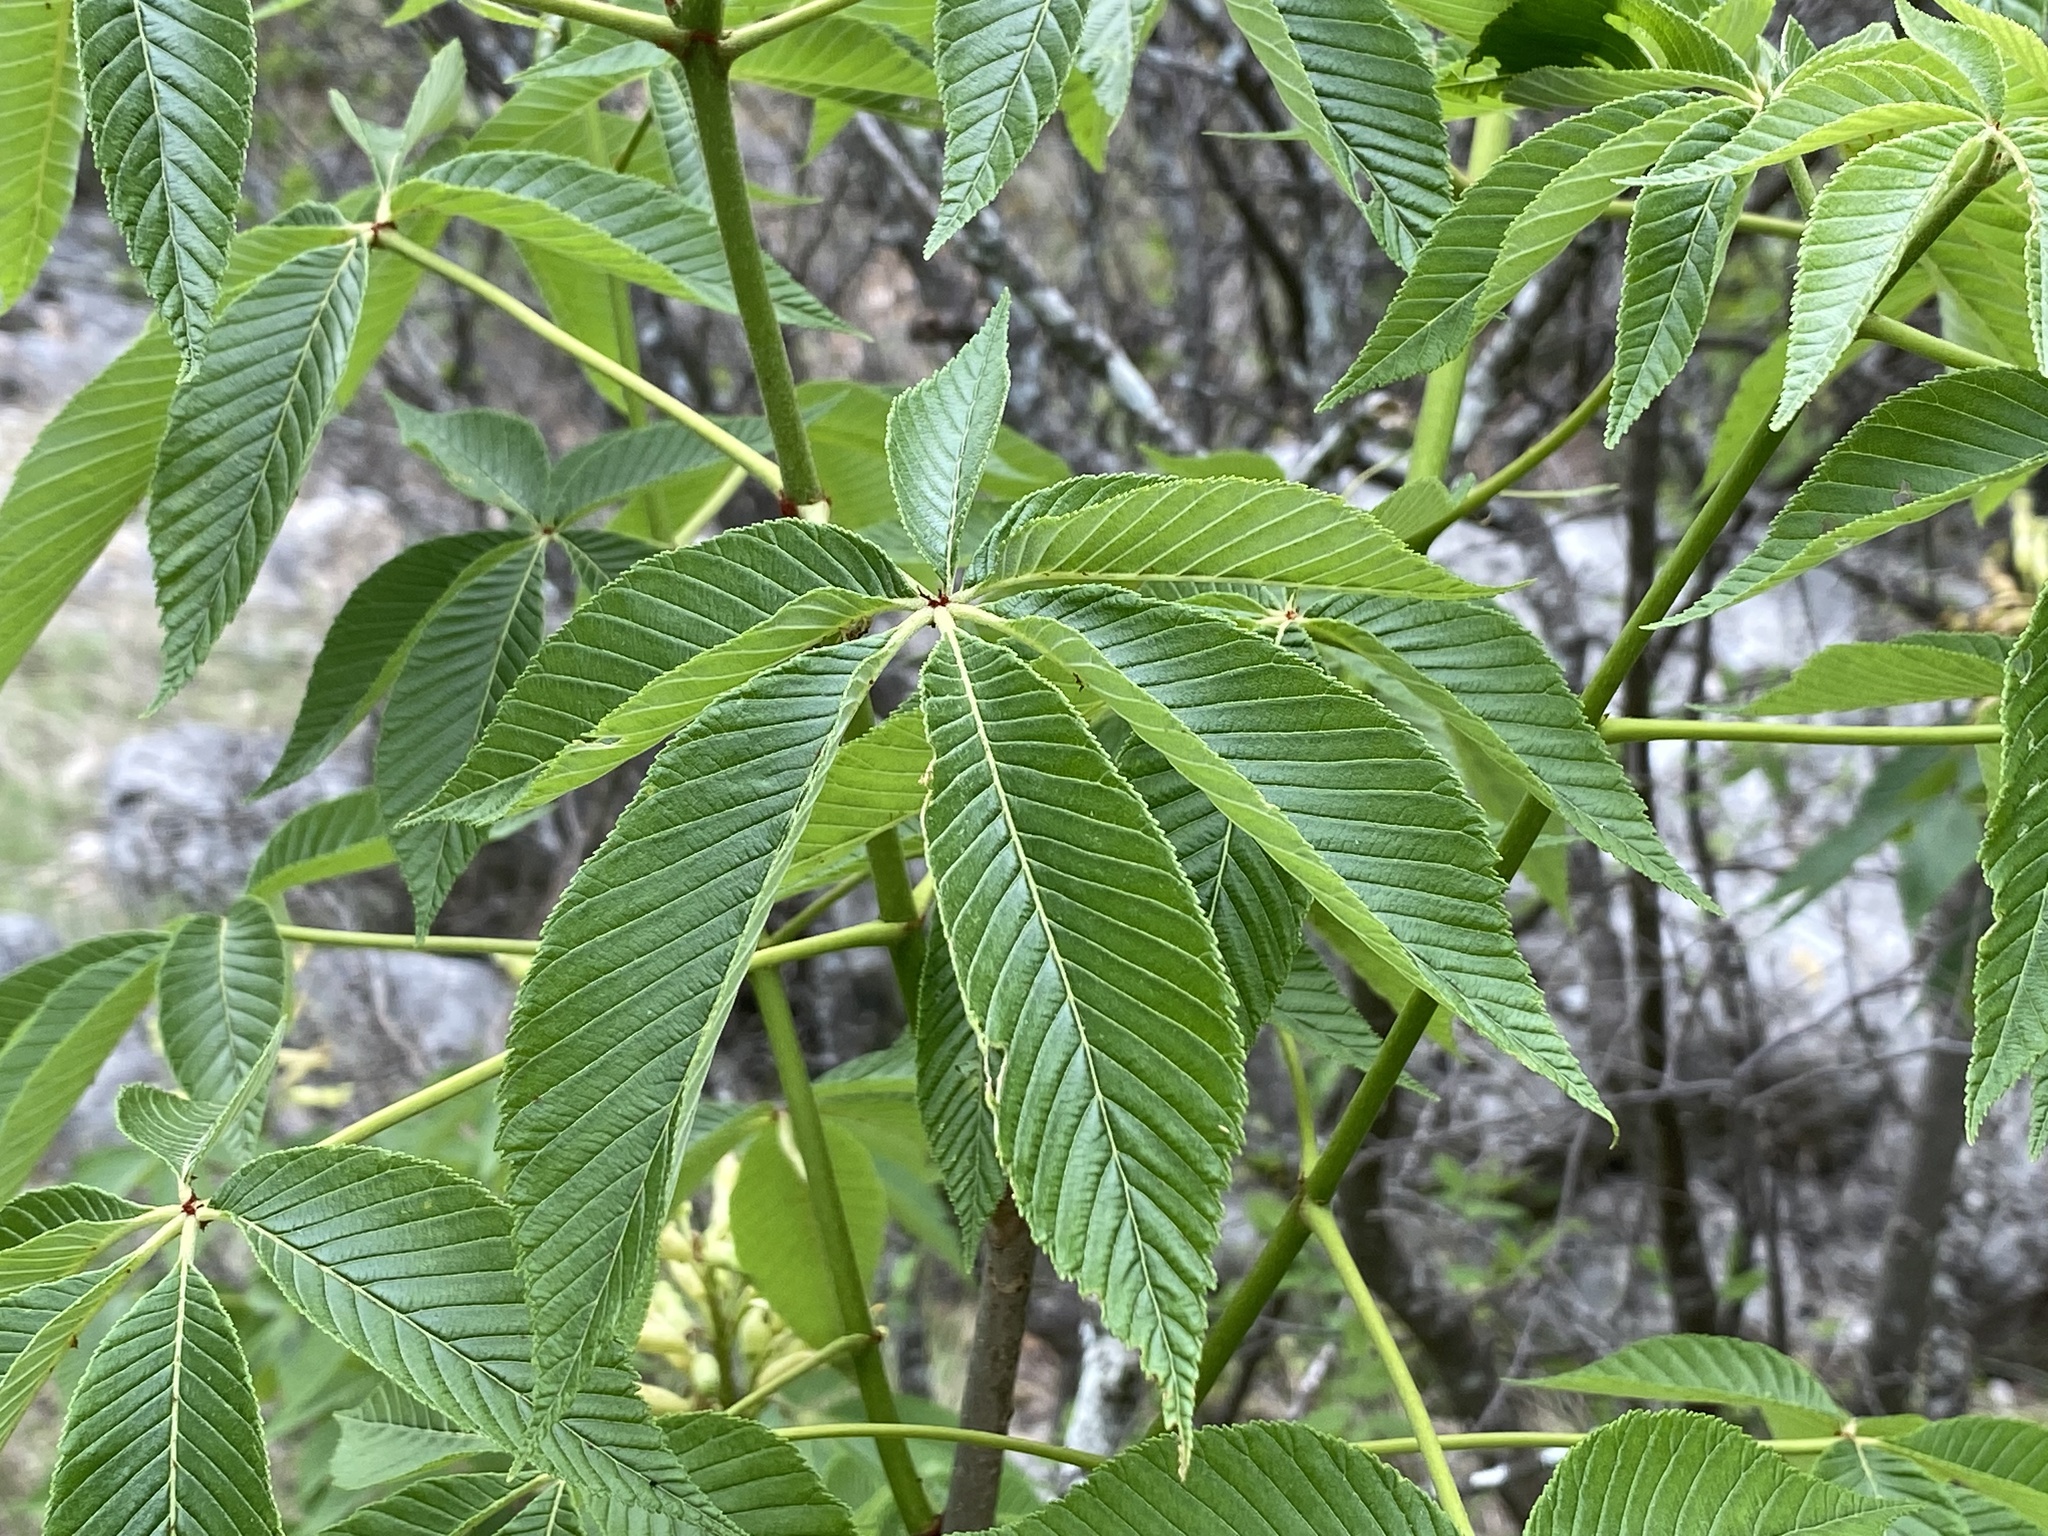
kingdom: Plantae
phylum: Tracheophyta
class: Magnoliopsida
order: Sapindales
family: Sapindaceae
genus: Aesculus
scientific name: Aesculus pavia
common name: Red buckeye
